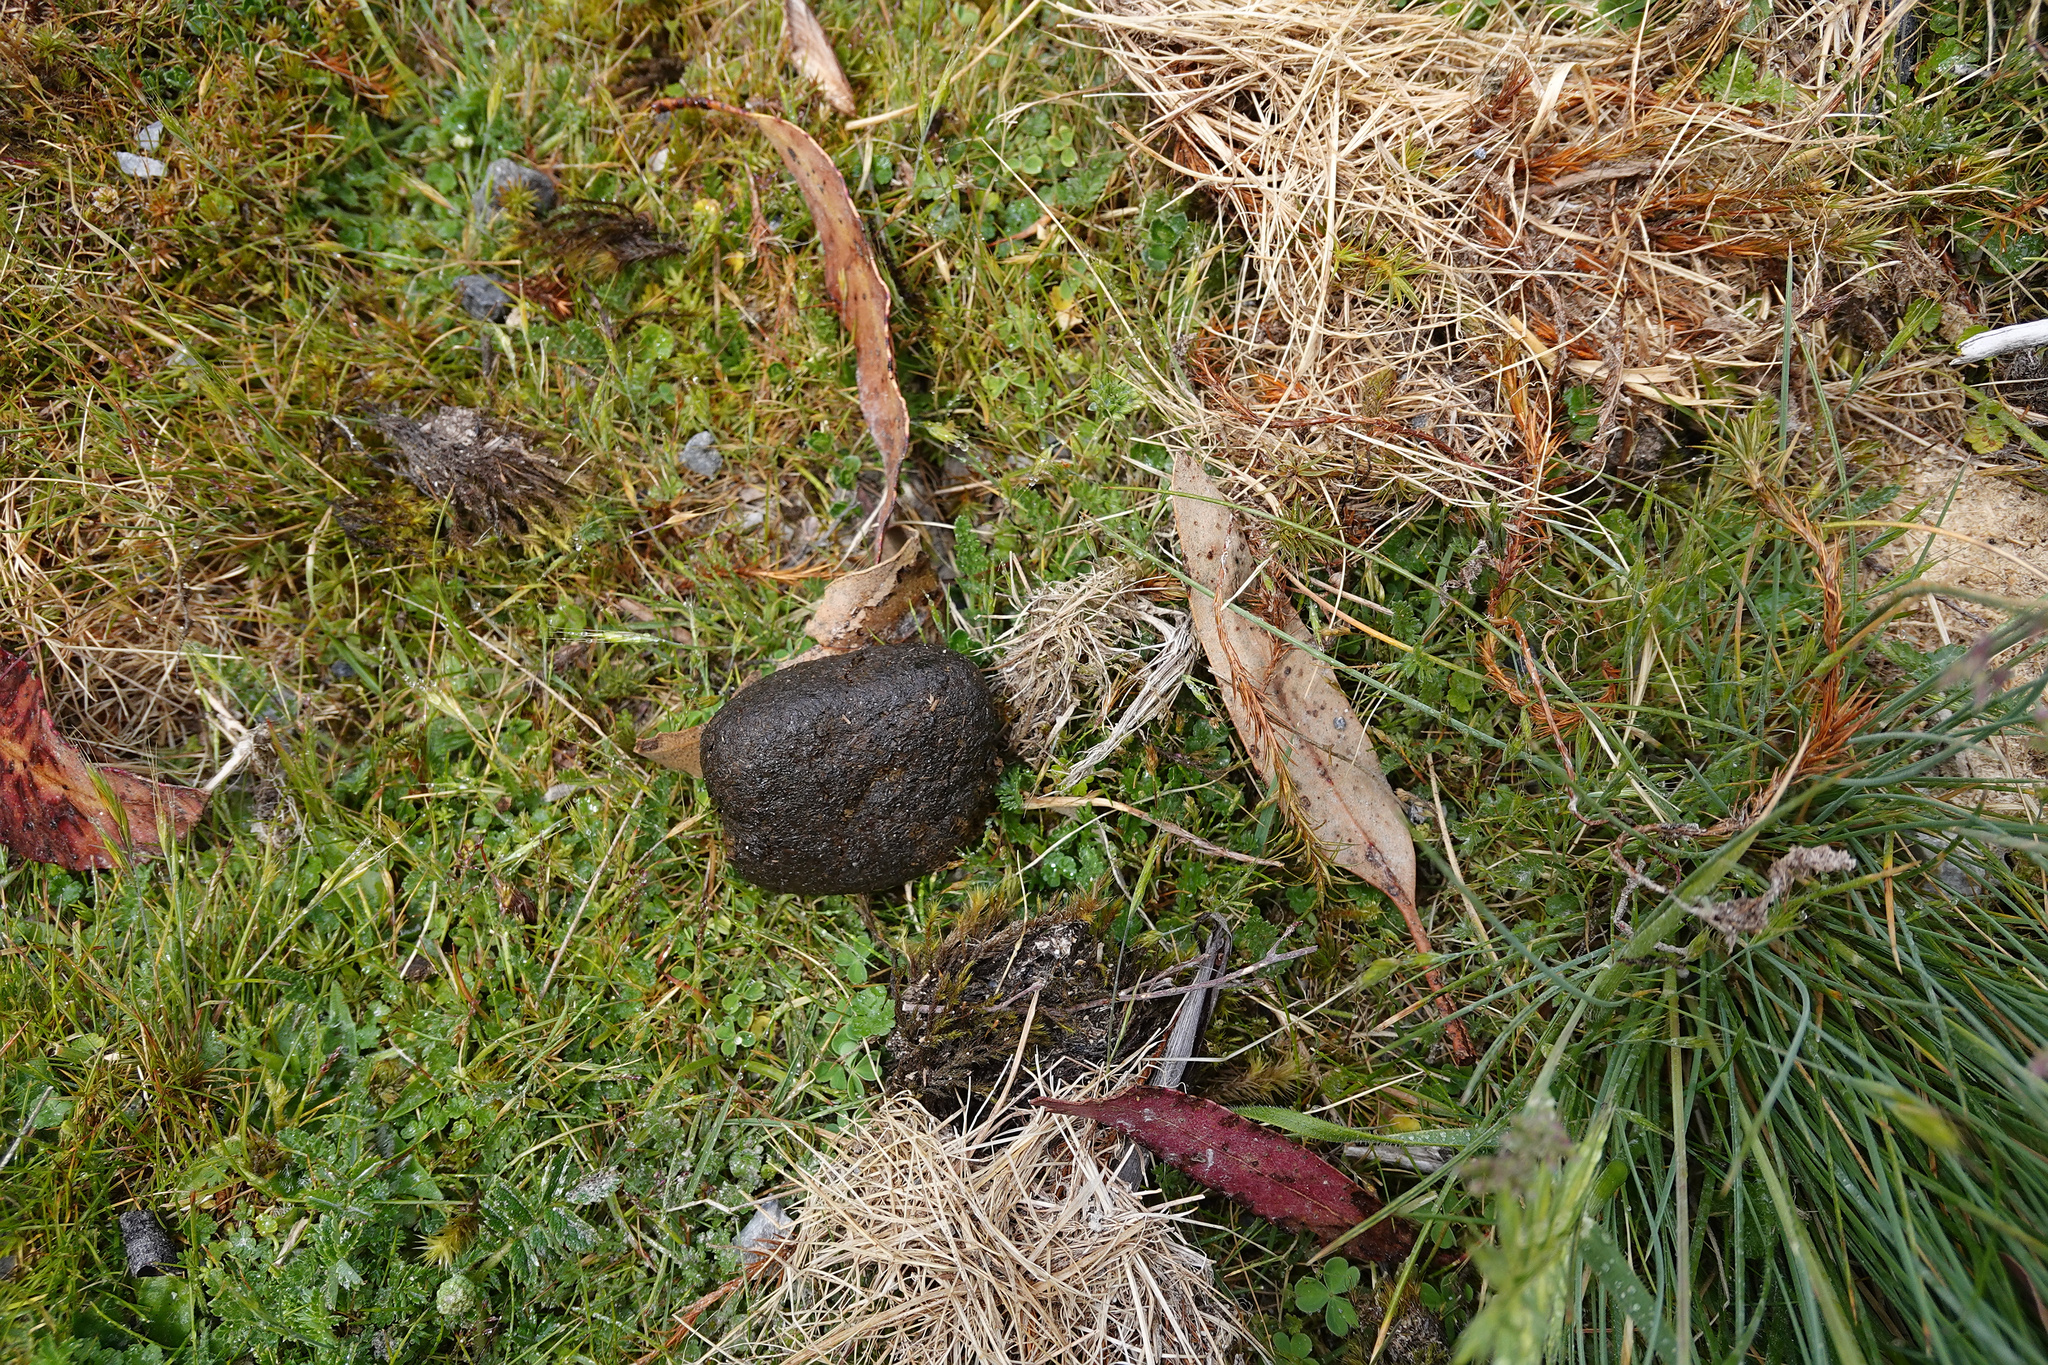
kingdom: Animalia
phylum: Chordata
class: Mammalia
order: Diprotodontia
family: Vombatidae
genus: Vombatus
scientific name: Vombatus ursinus
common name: Common wombat
